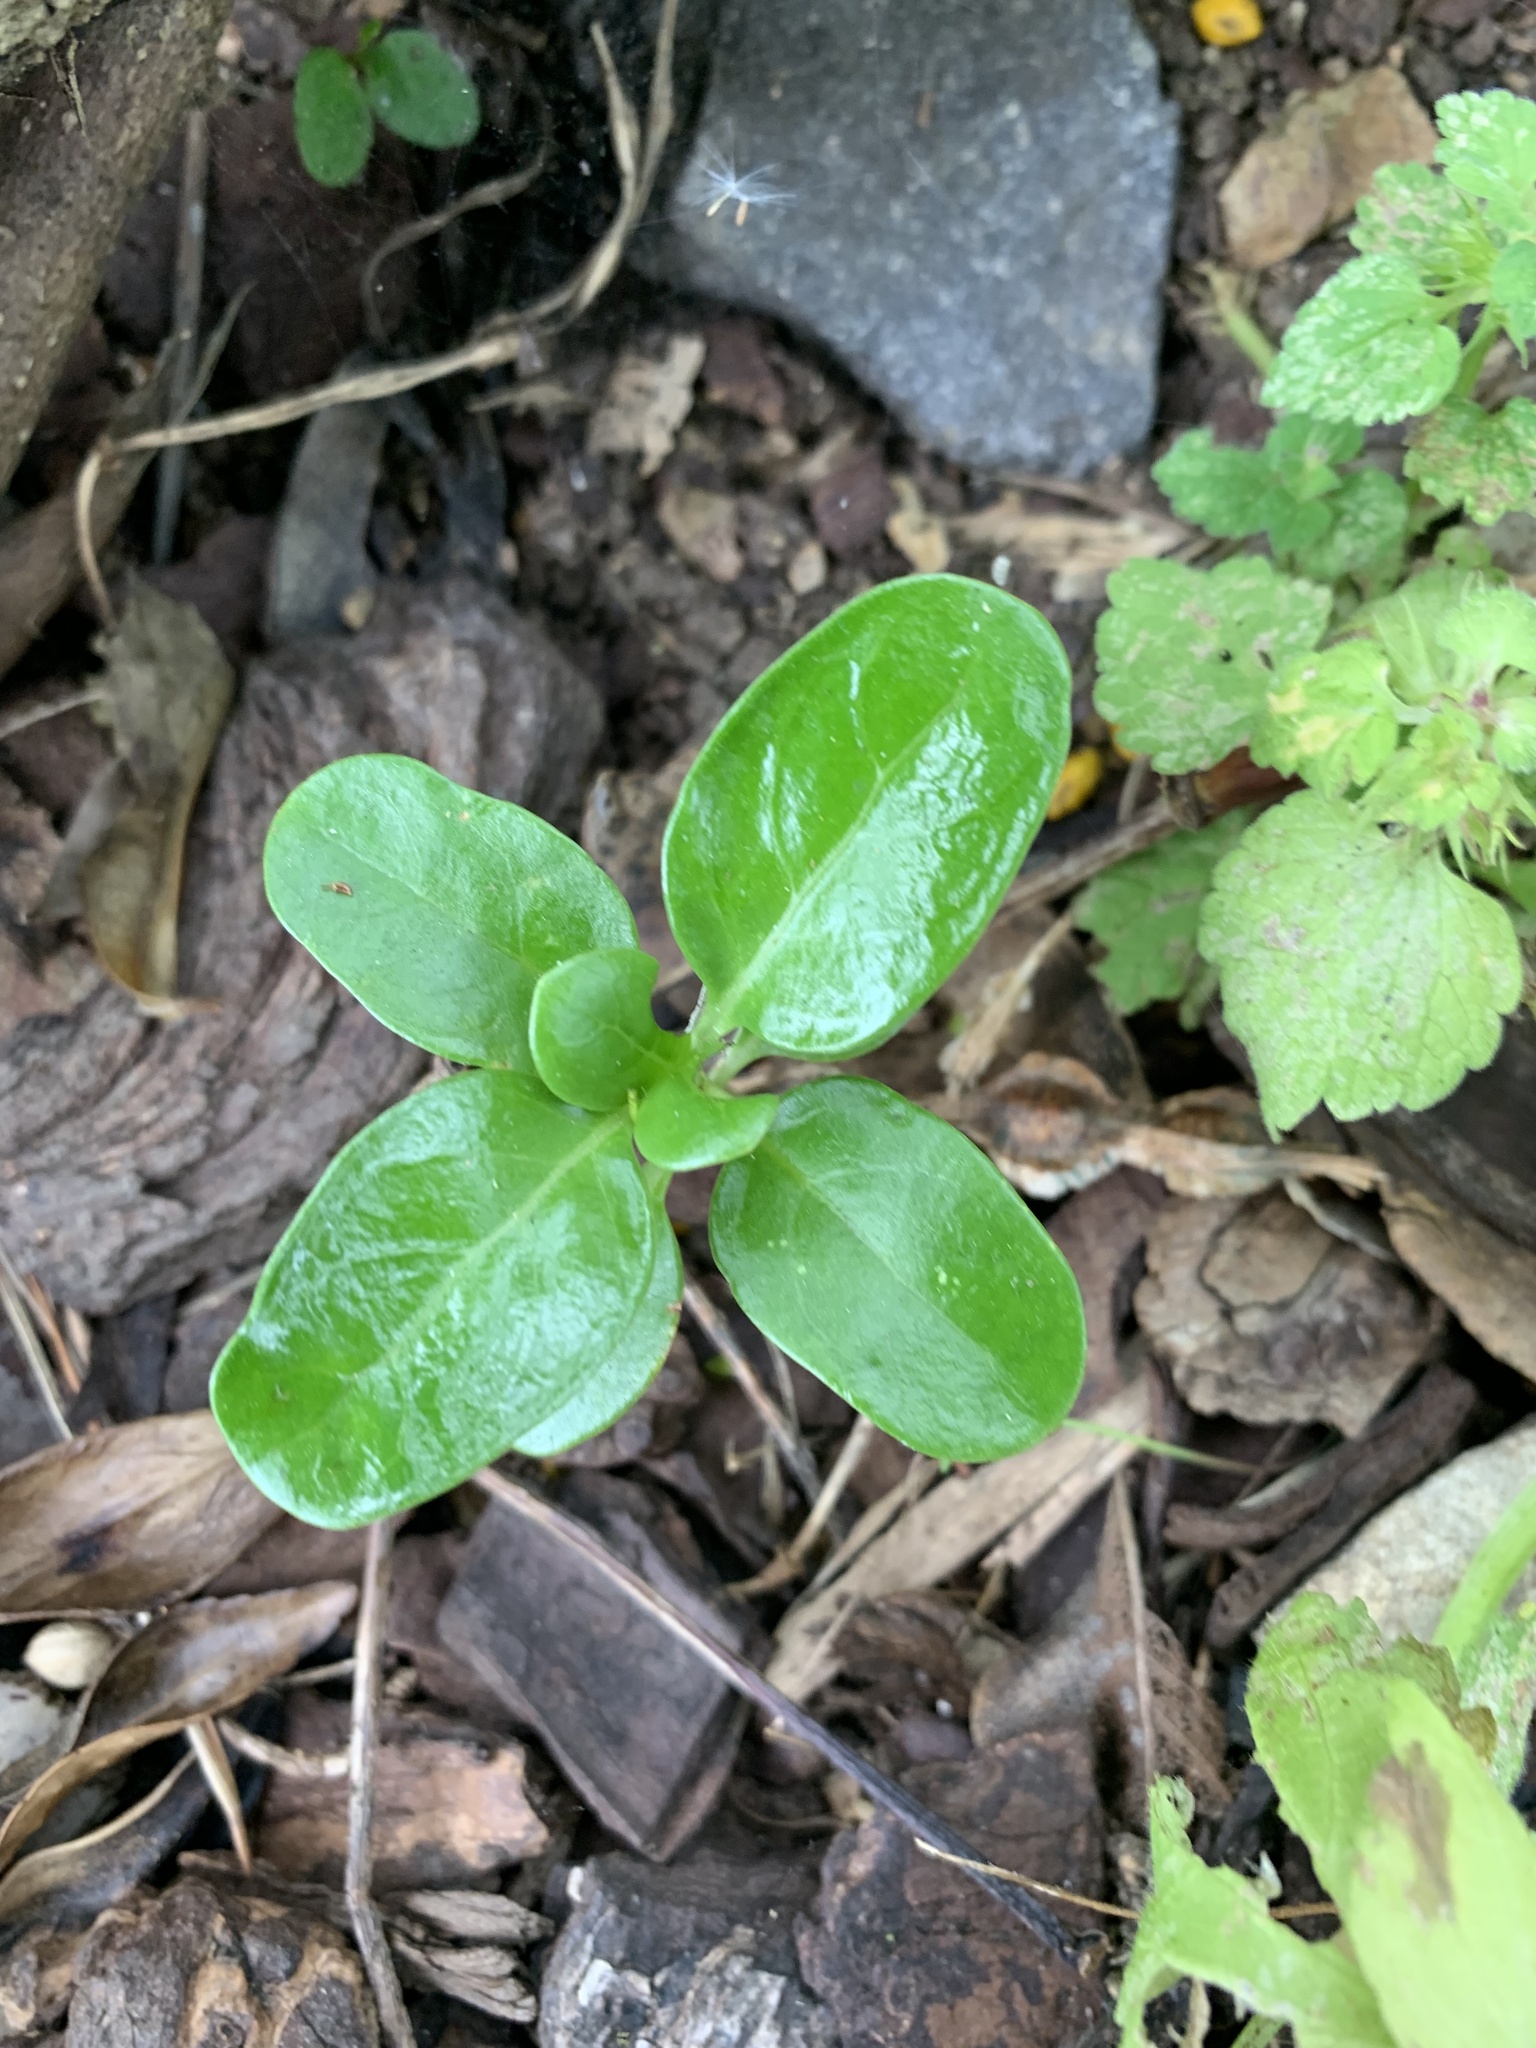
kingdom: Plantae
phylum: Tracheophyta
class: Magnoliopsida
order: Gentianales
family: Rubiaceae
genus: Coprosma
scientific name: Coprosma repens
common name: Tree bedstraw
